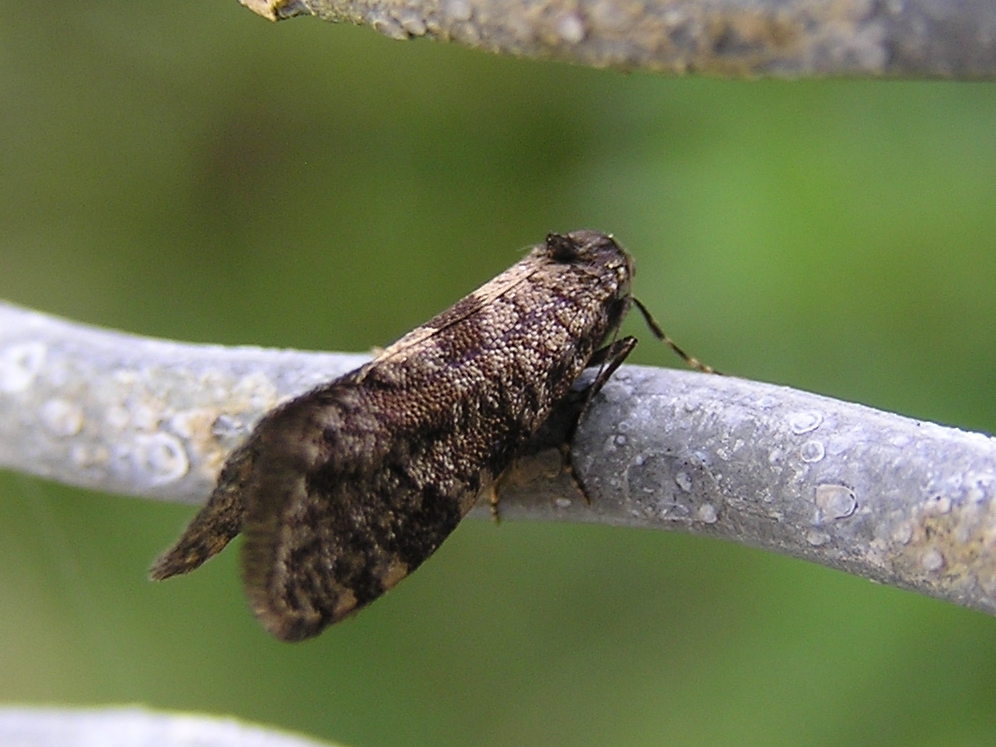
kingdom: Animalia
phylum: Arthropoda
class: Insecta
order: Lepidoptera
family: Psychidae
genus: Lepidoscia
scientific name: Lepidoscia heliochares
